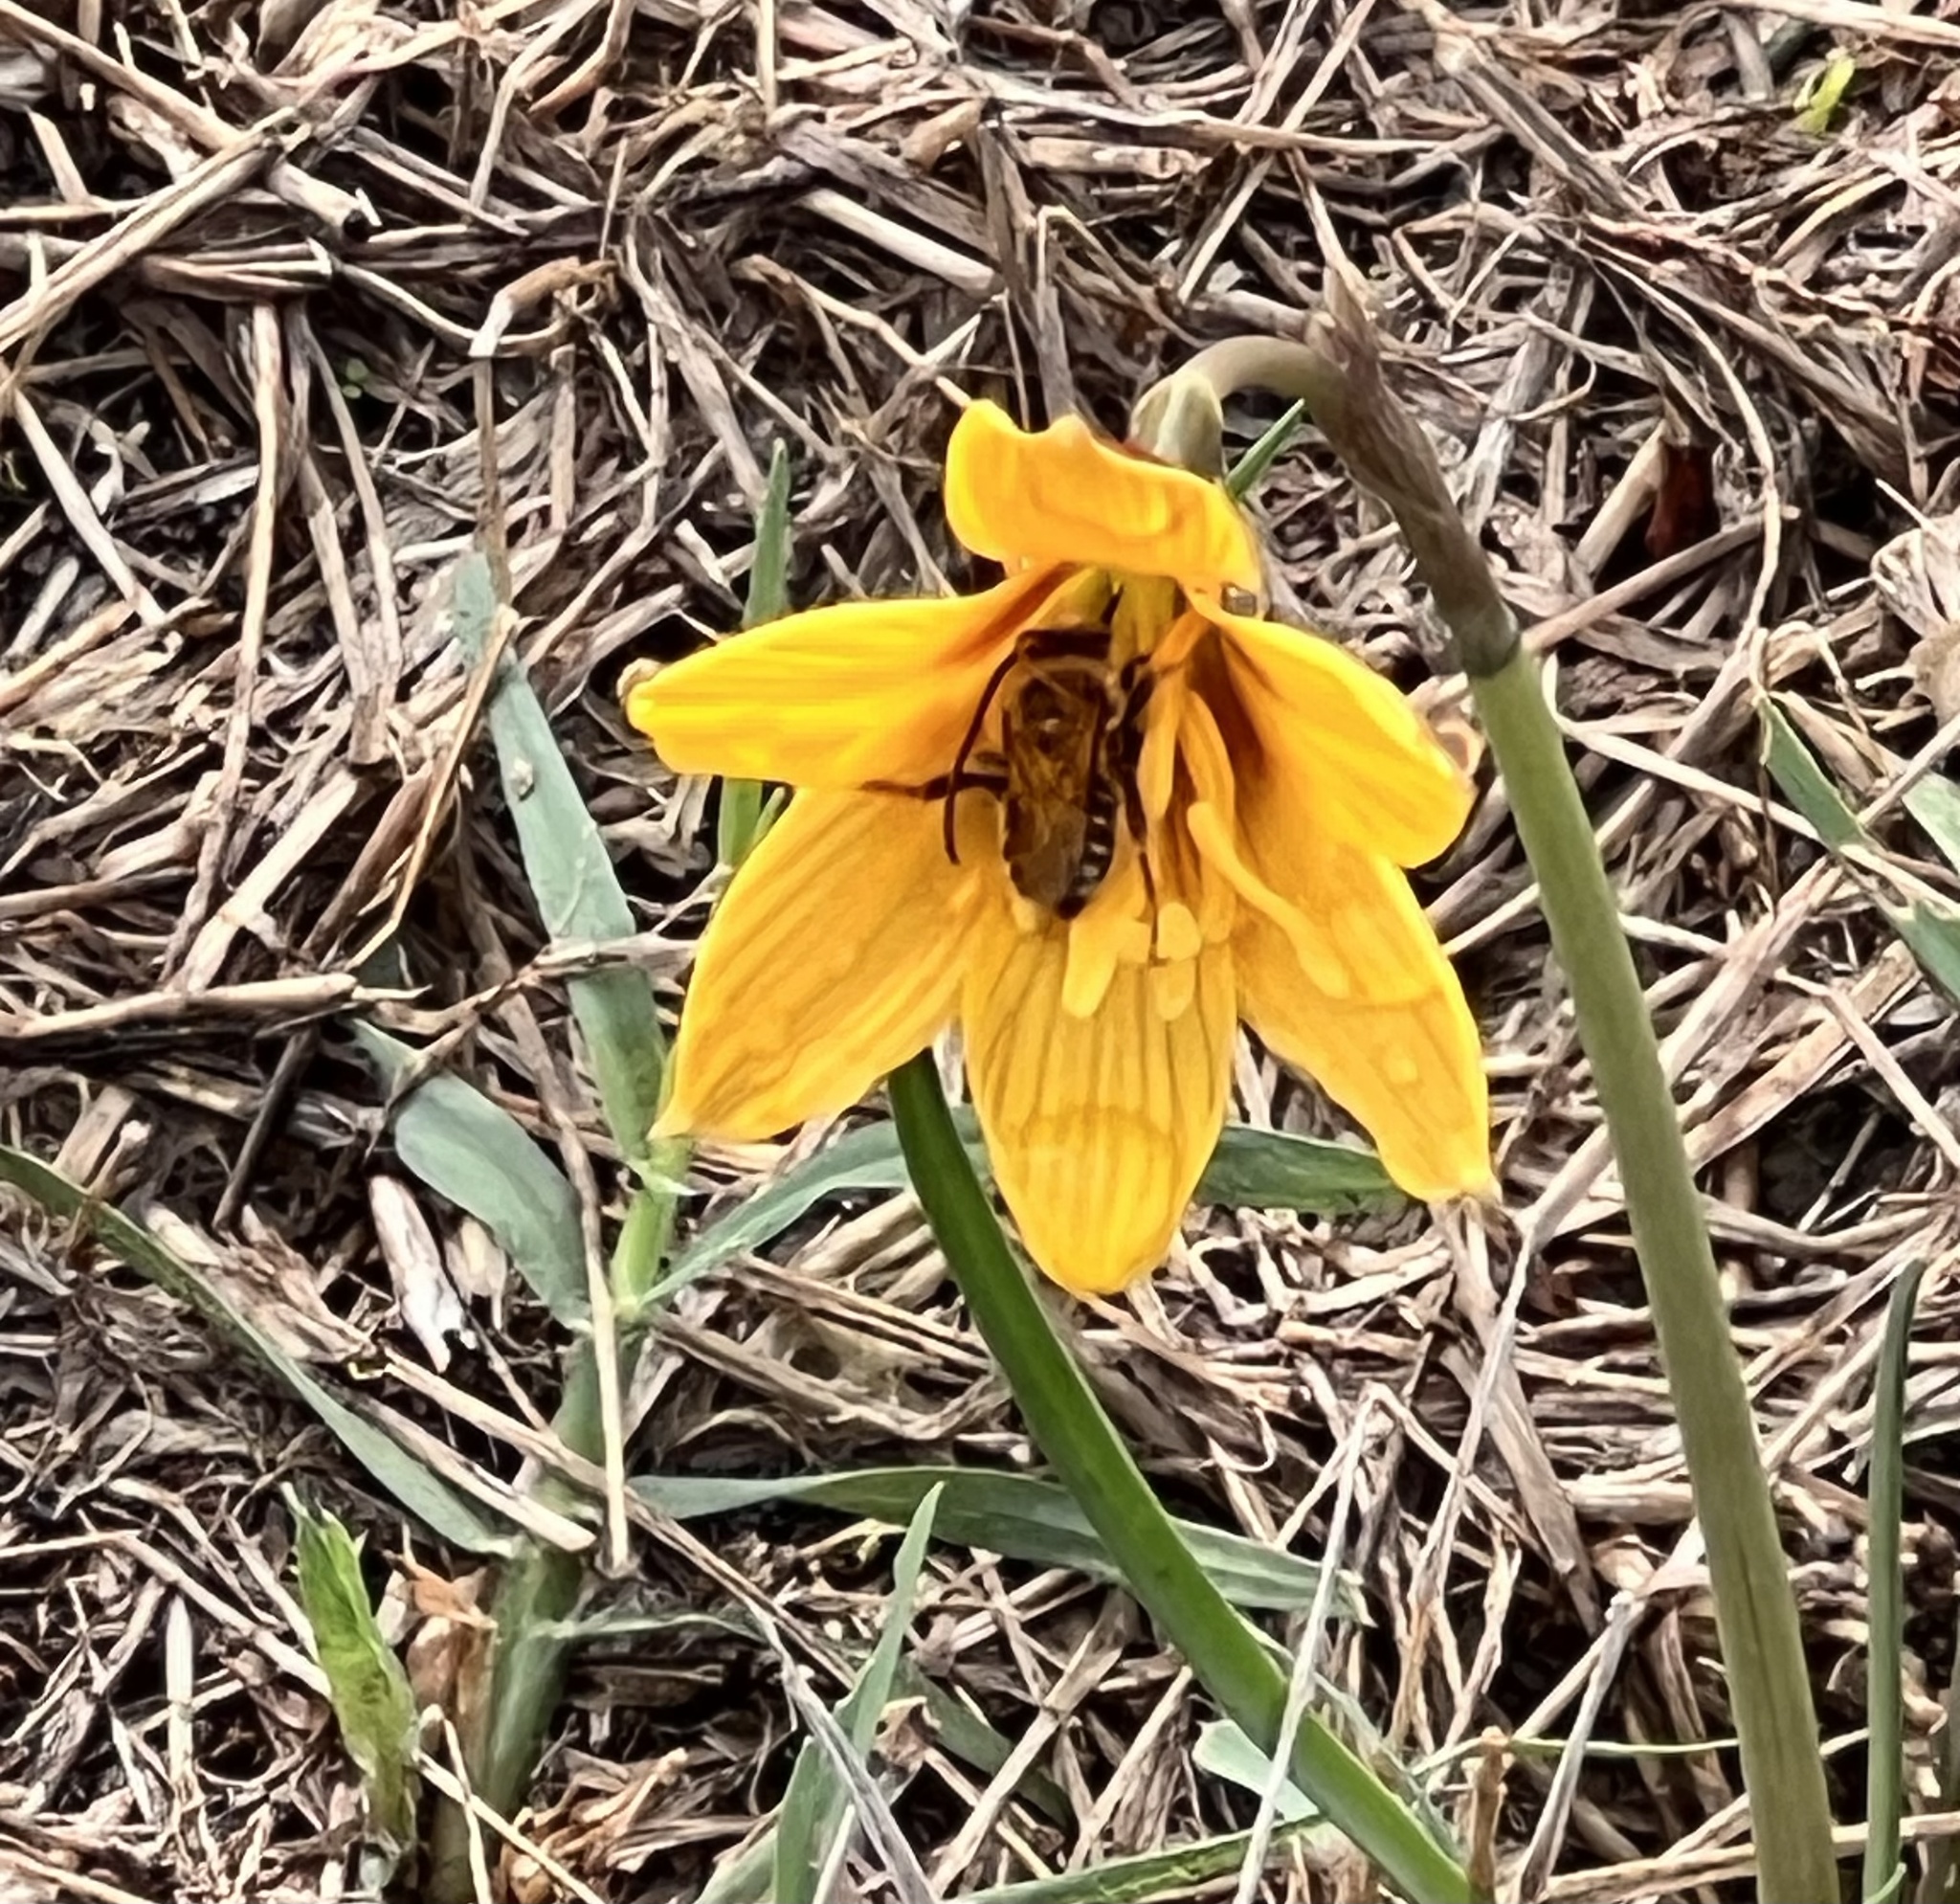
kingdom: Plantae
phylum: Tracheophyta
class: Liliopsida
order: Asparagales
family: Amaryllidaceae
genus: Zephyranthes
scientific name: Zephyranthes tubispatha
